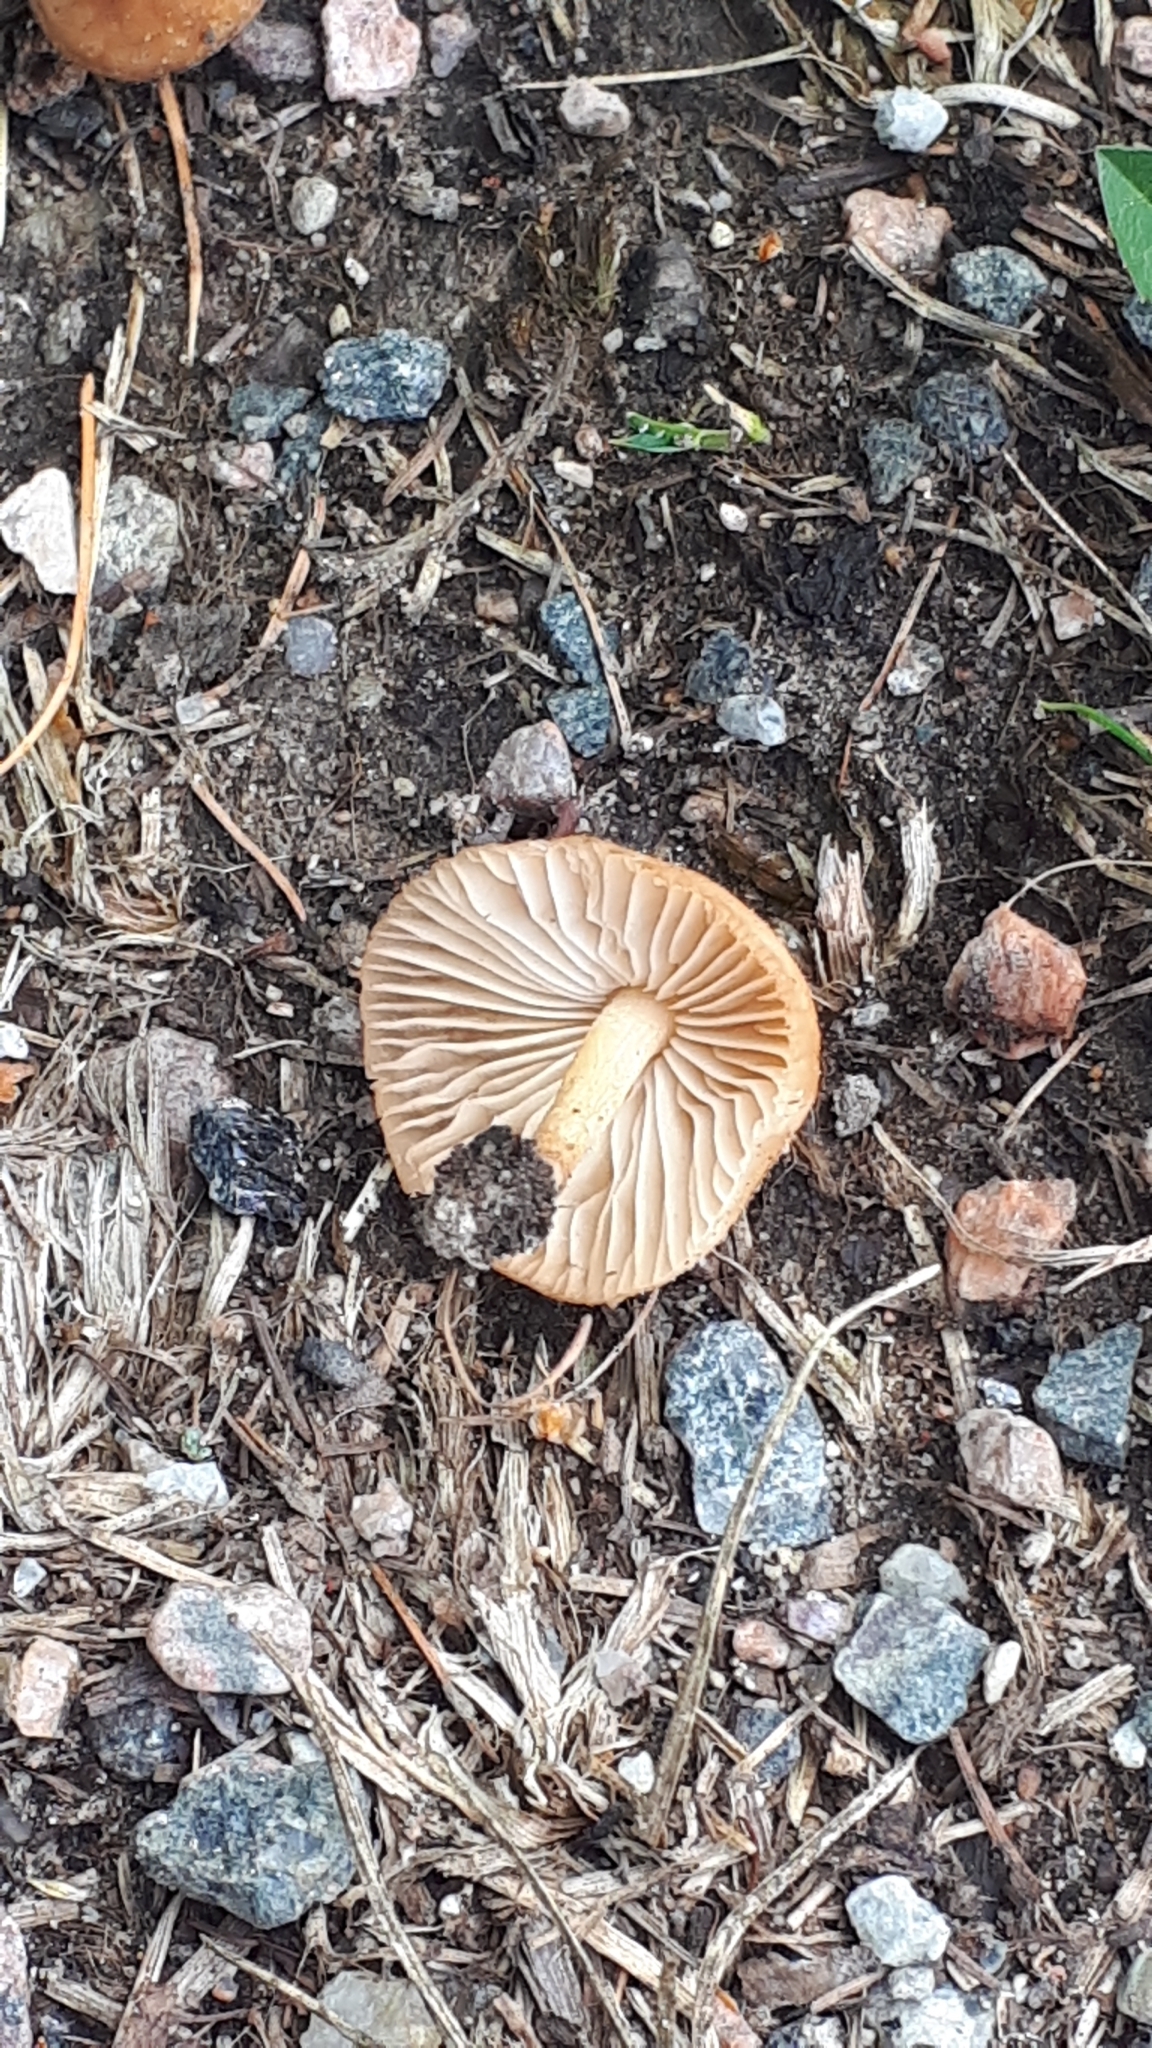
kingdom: Fungi
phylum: Basidiomycota
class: Agaricomycetes
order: Agaricales
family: Marasmiaceae
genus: Marasmius
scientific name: Marasmius oreades
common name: Fairy ring champignon
